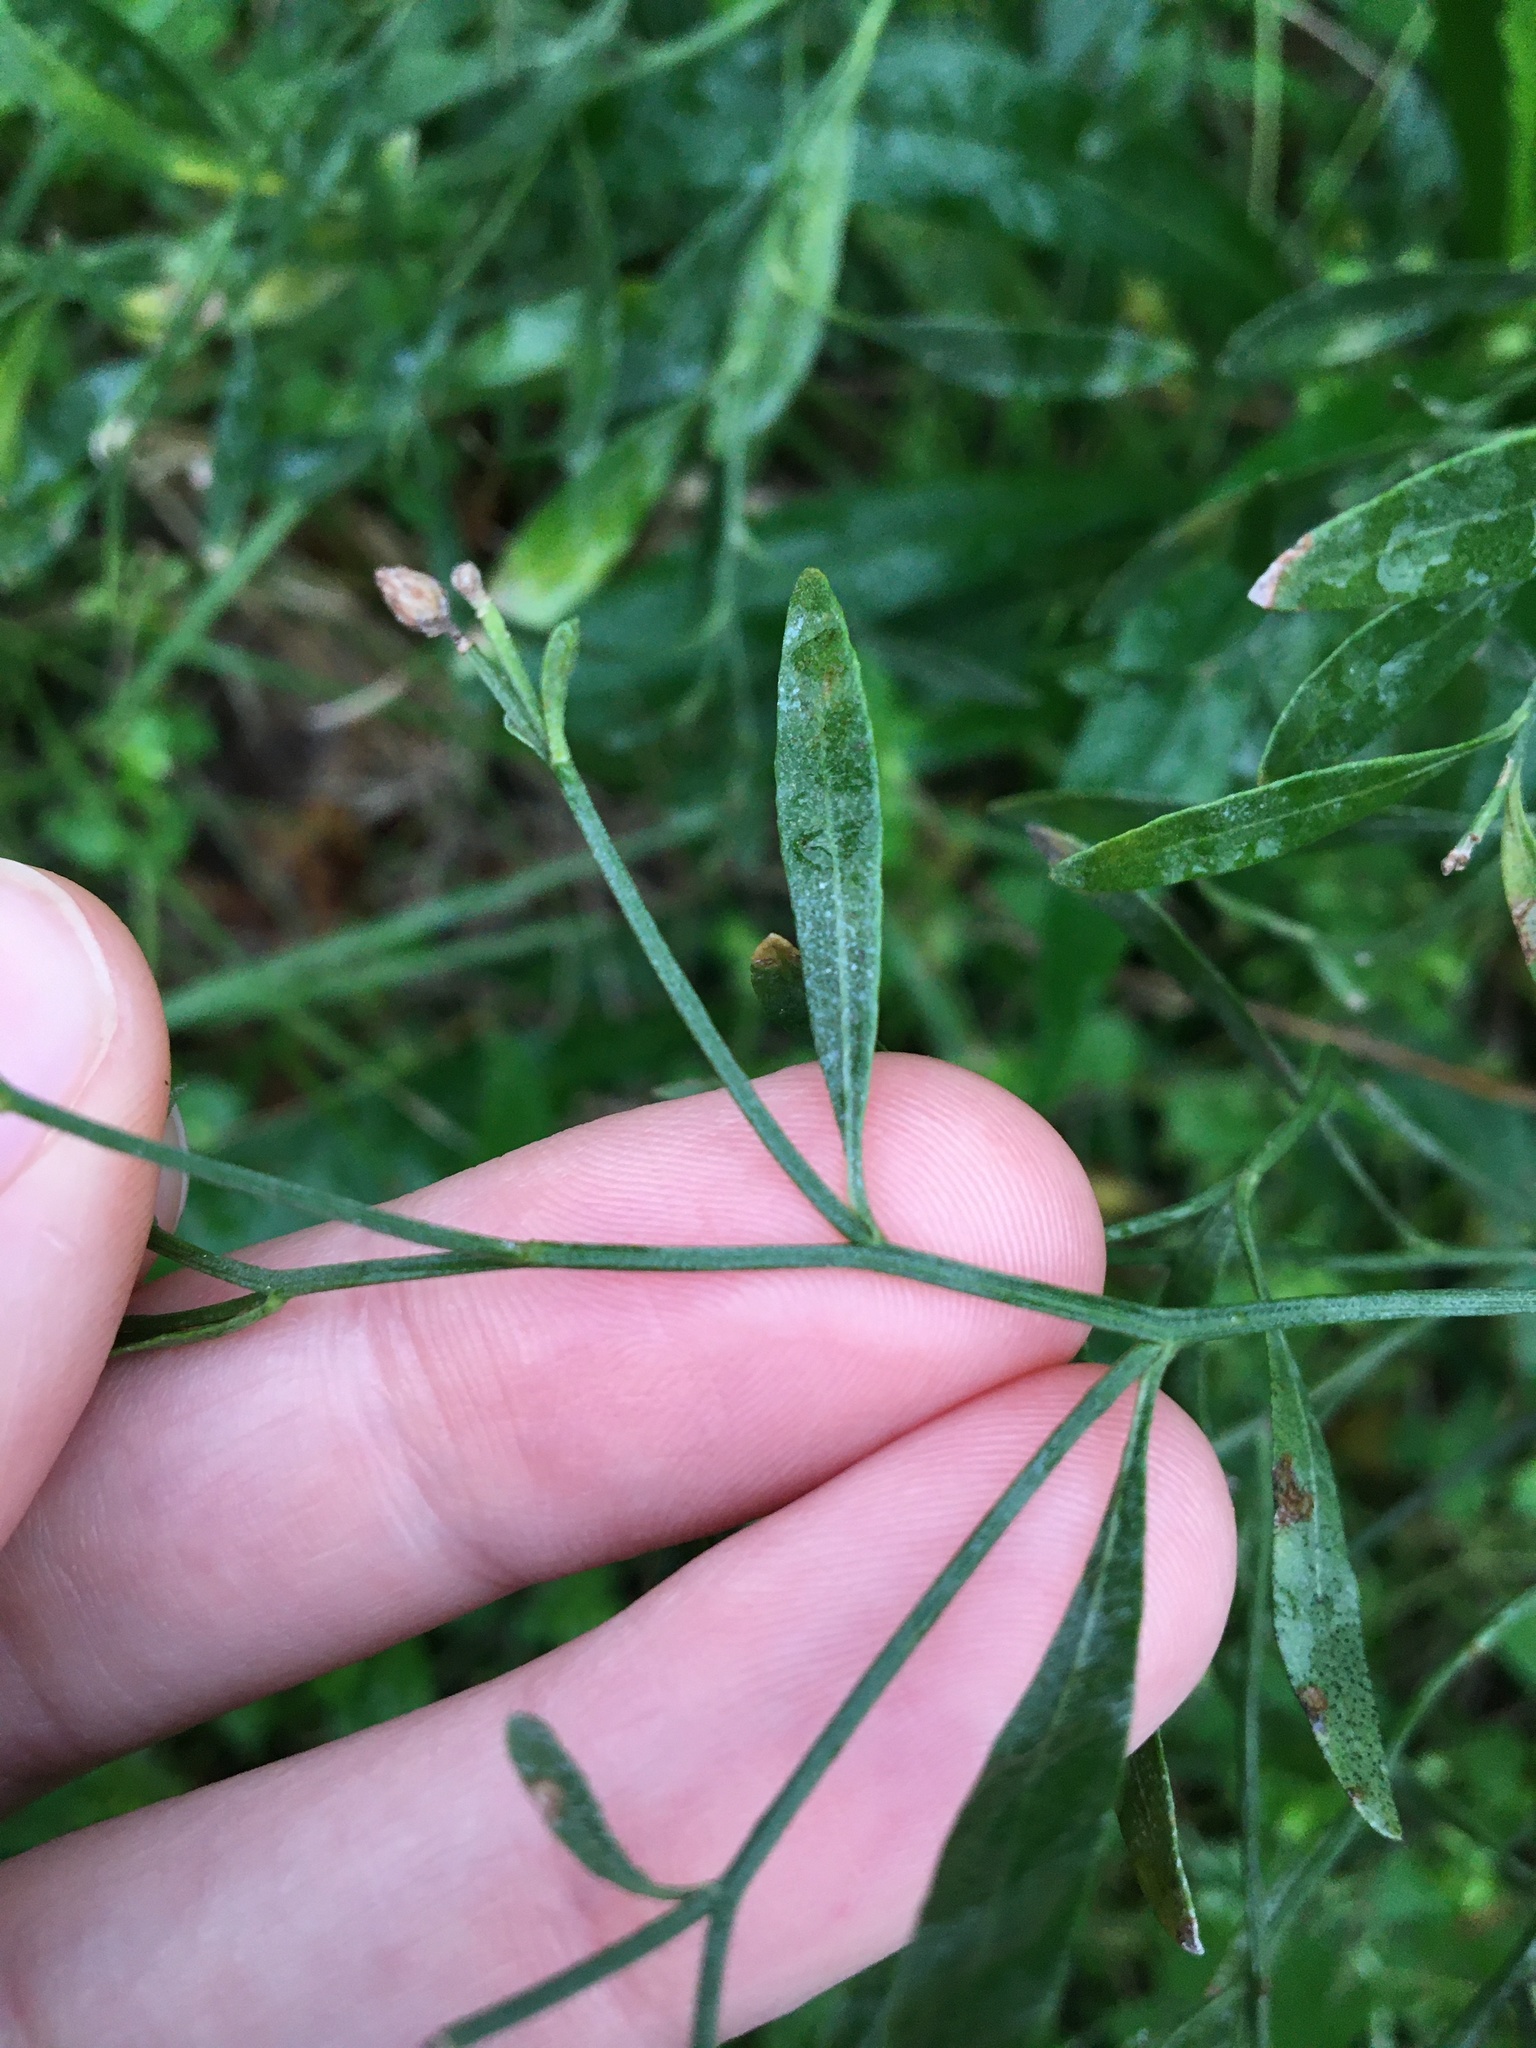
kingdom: Plantae
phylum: Tracheophyta
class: Magnoliopsida
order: Asterales
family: Asteraceae
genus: Baccharis
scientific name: Baccharis halimifolia
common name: Eastern baccharis
